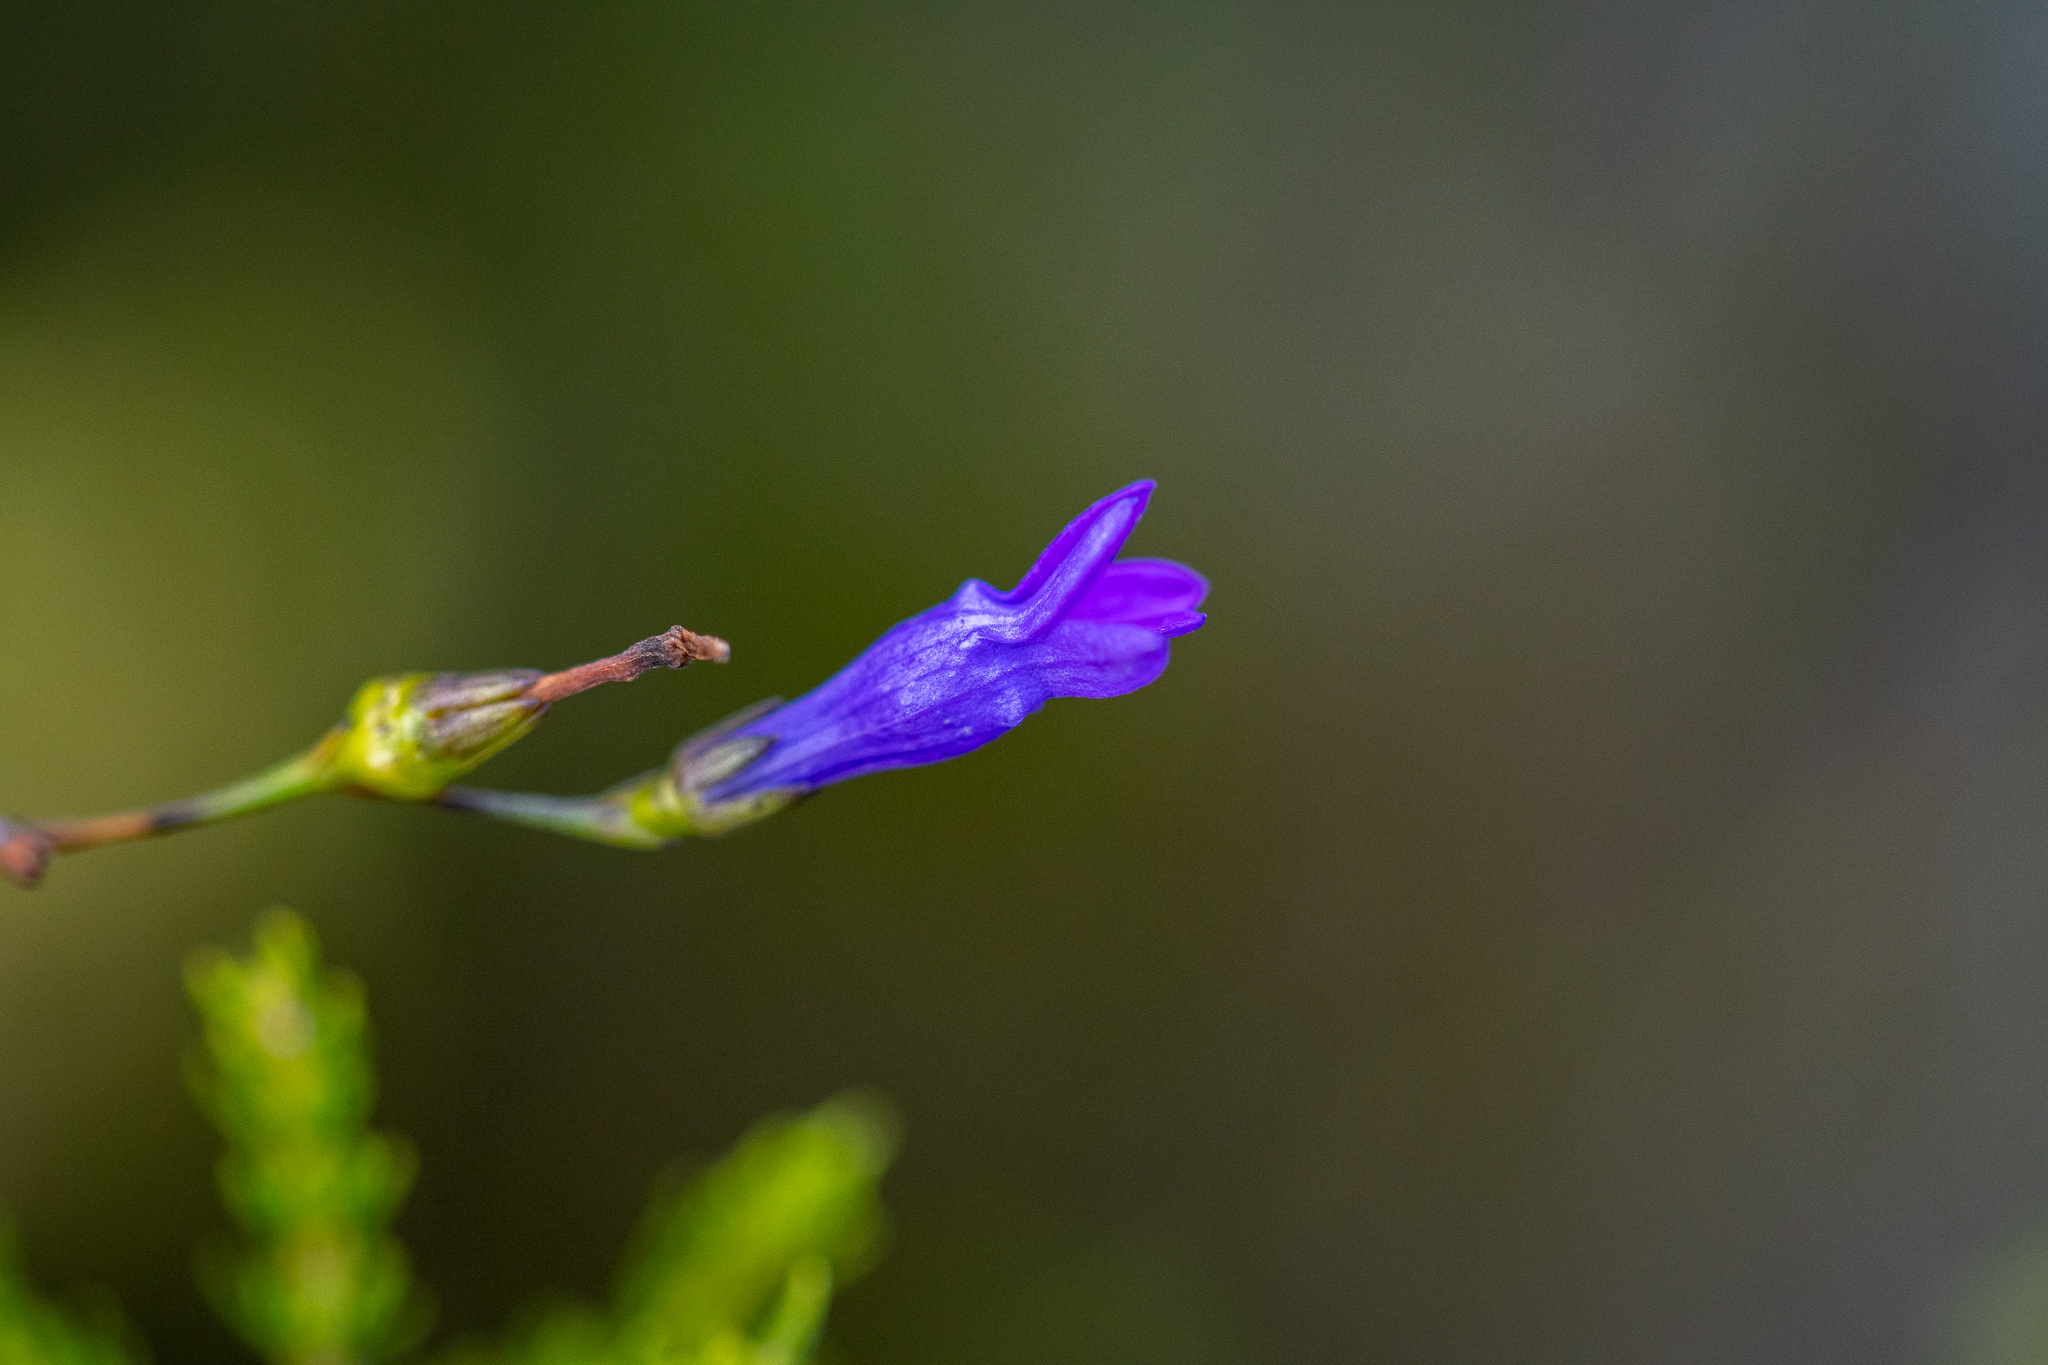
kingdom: Plantae
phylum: Tracheophyta
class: Magnoliopsida
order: Asterales
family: Campanulaceae
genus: Siphocodon
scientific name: Siphocodon spartioides
